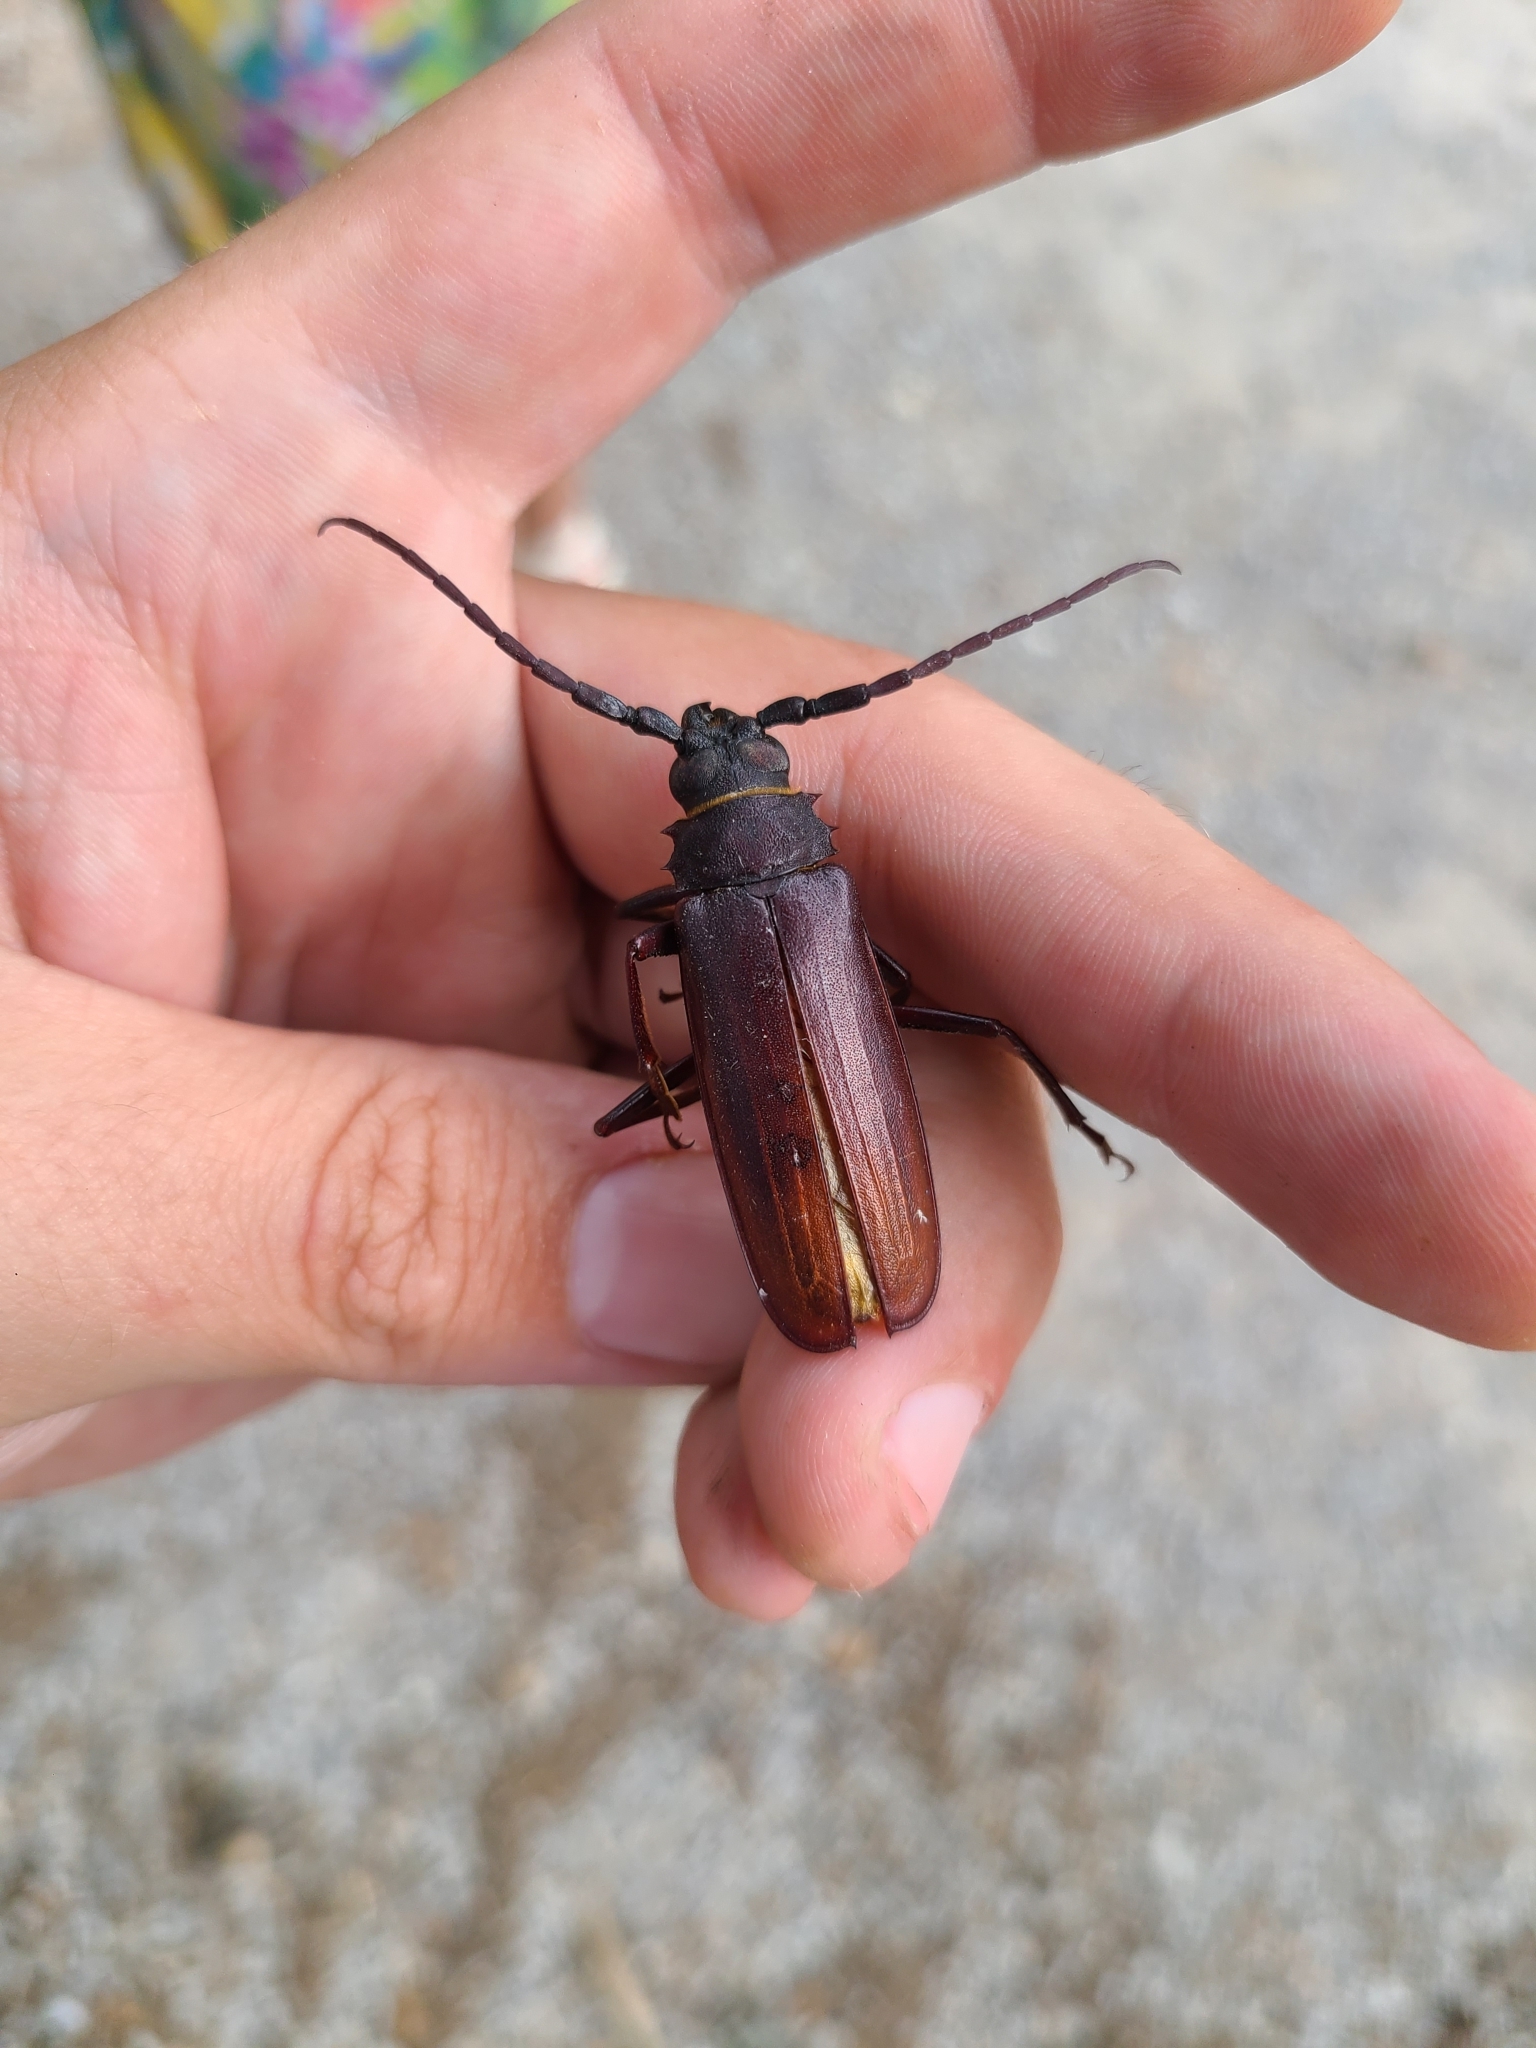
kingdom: Animalia
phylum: Arthropoda
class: Insecta
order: Coleoptera
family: Cerambycidae
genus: Orthosoma
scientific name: Orthosoma brunneum
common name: Brown prionid beetle
